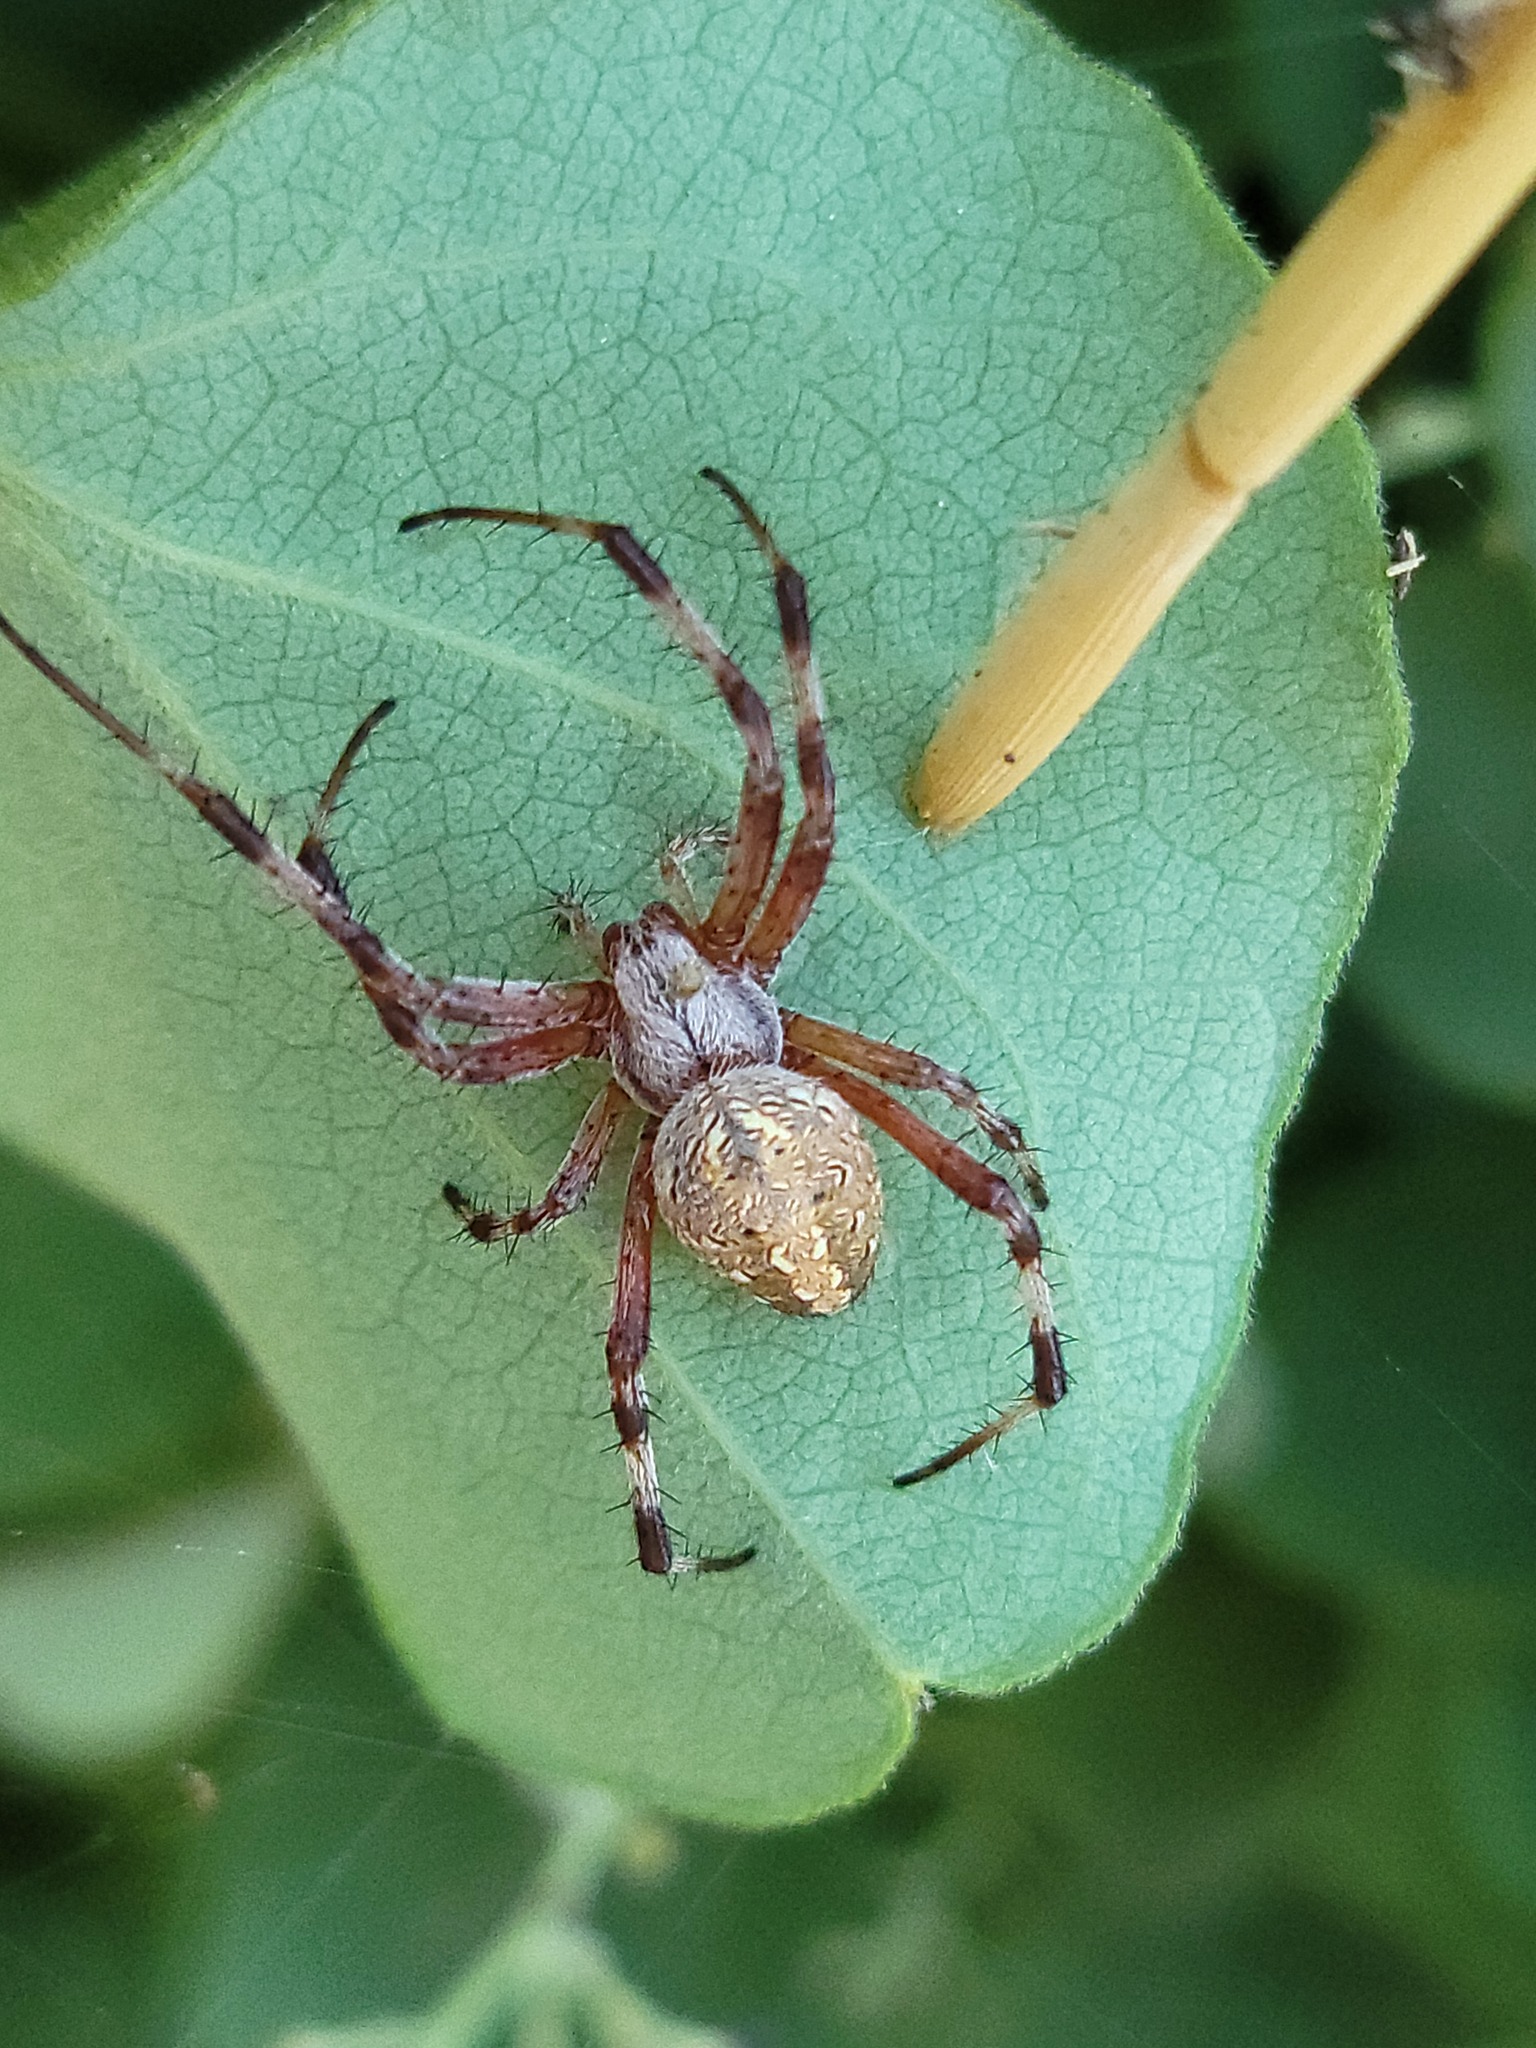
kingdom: Animalia
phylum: Arthropoda
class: Arachnida
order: Araneae
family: Araneidae
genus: Neoscona
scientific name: Neoscona arabesca
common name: Orb weavers
